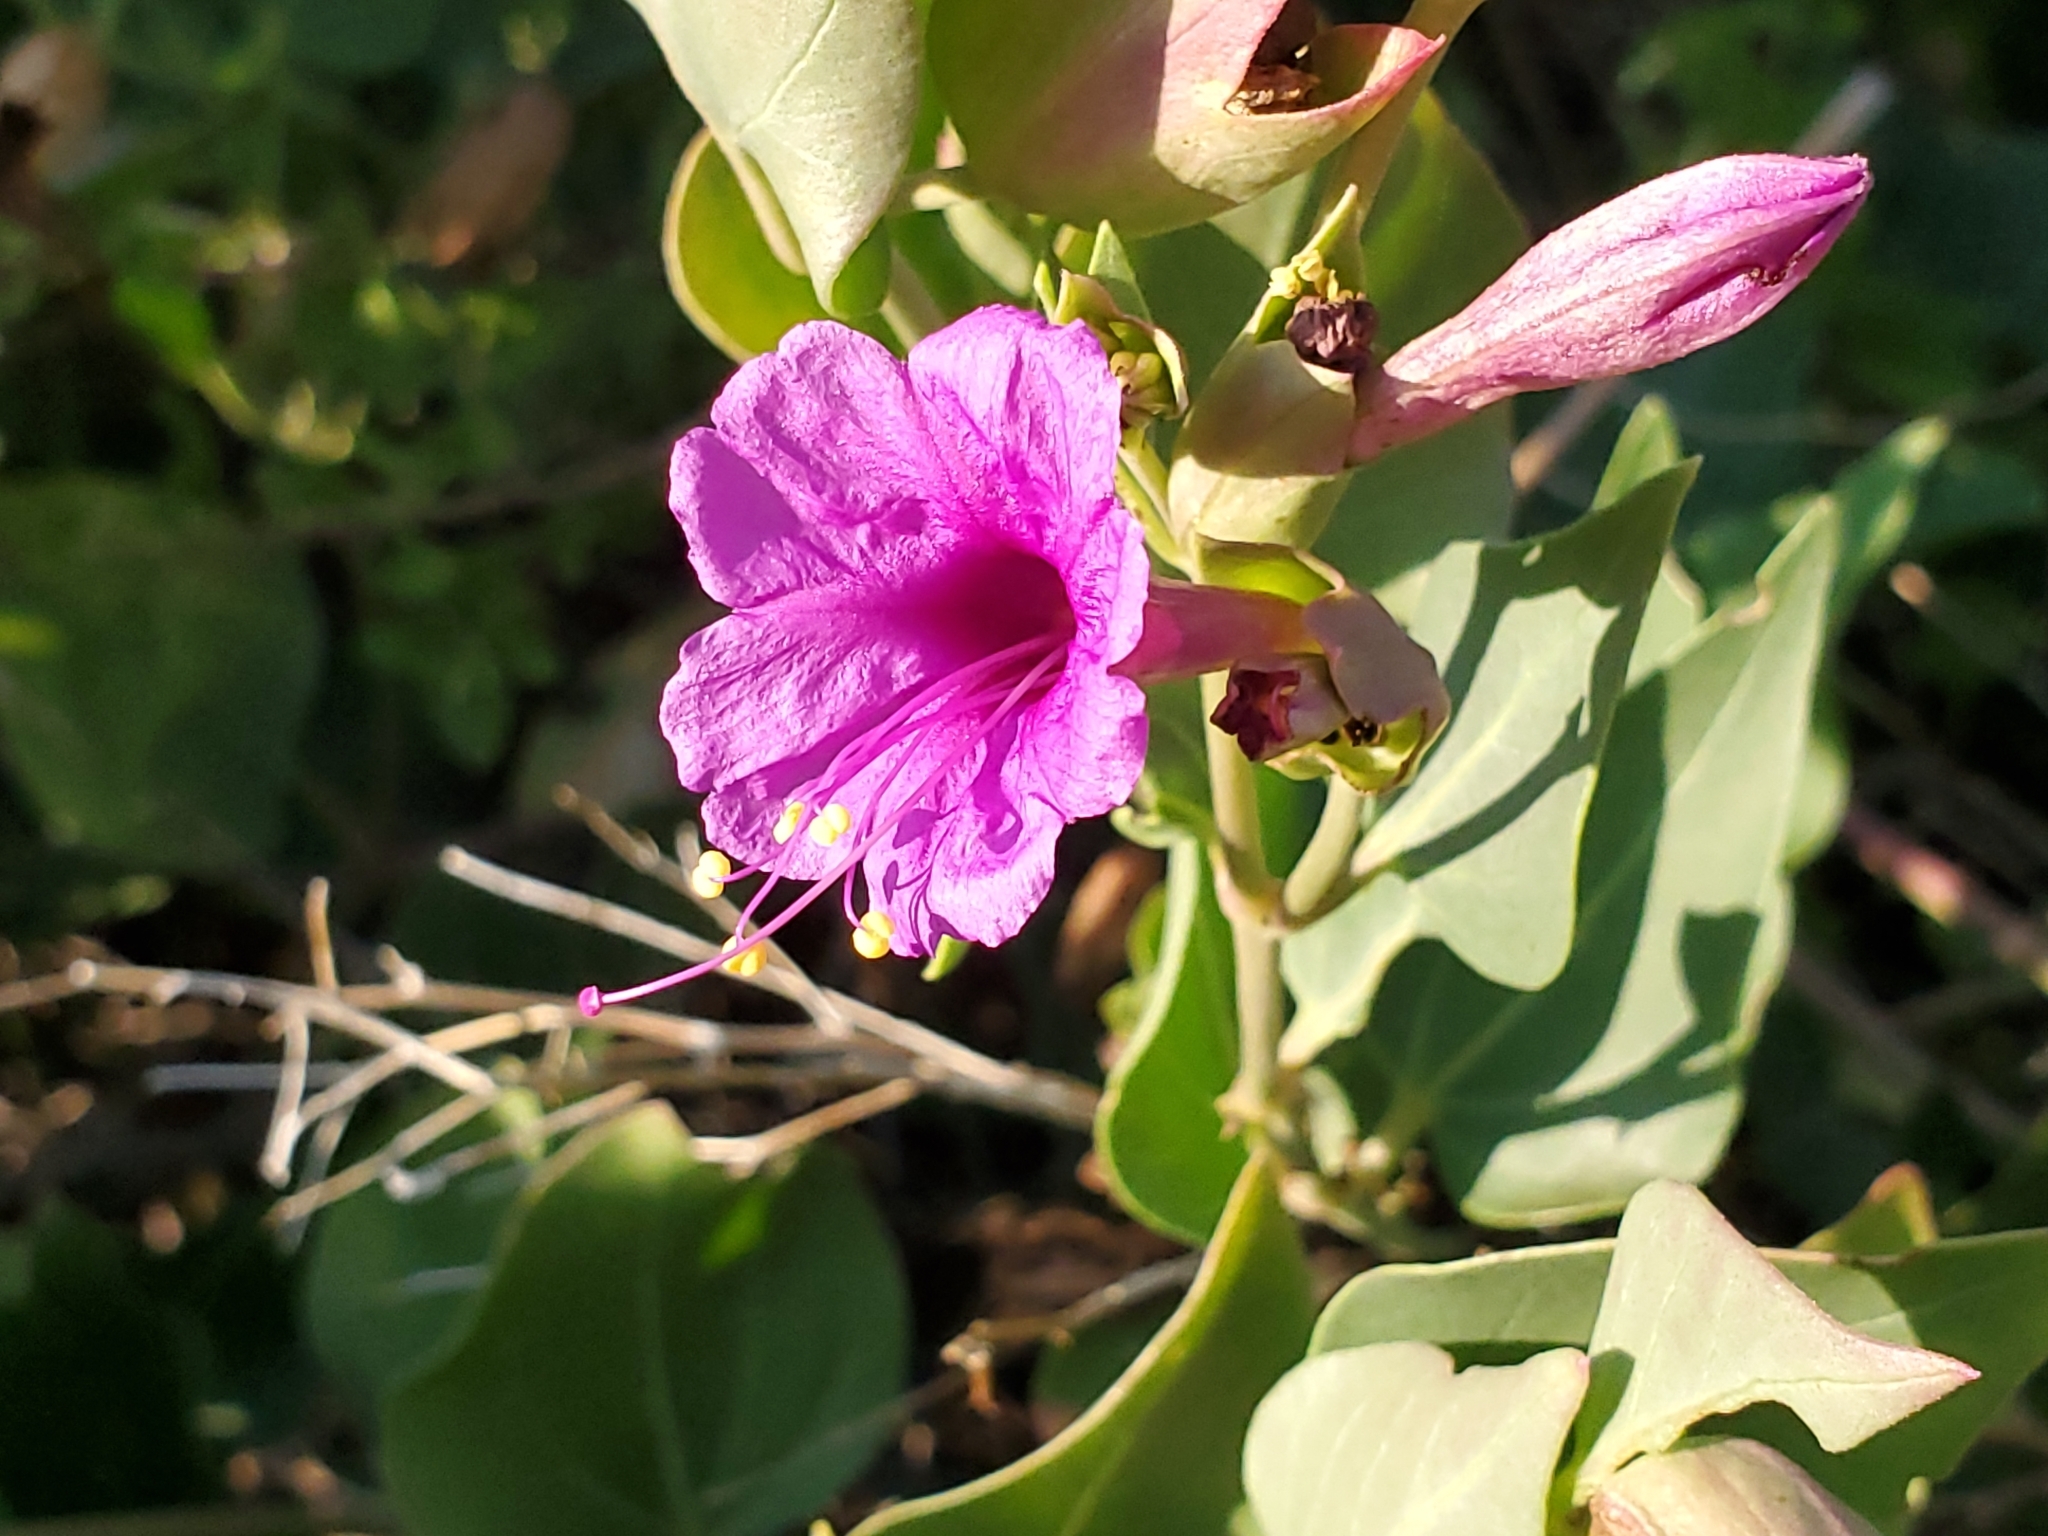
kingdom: Plantae
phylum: Tracheophyta
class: Magnoliopsida
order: Caryophyllales
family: Nyctaginaceae
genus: Mirabilis
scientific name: Mirabilis multiflora
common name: Froebel's four-o'clock
